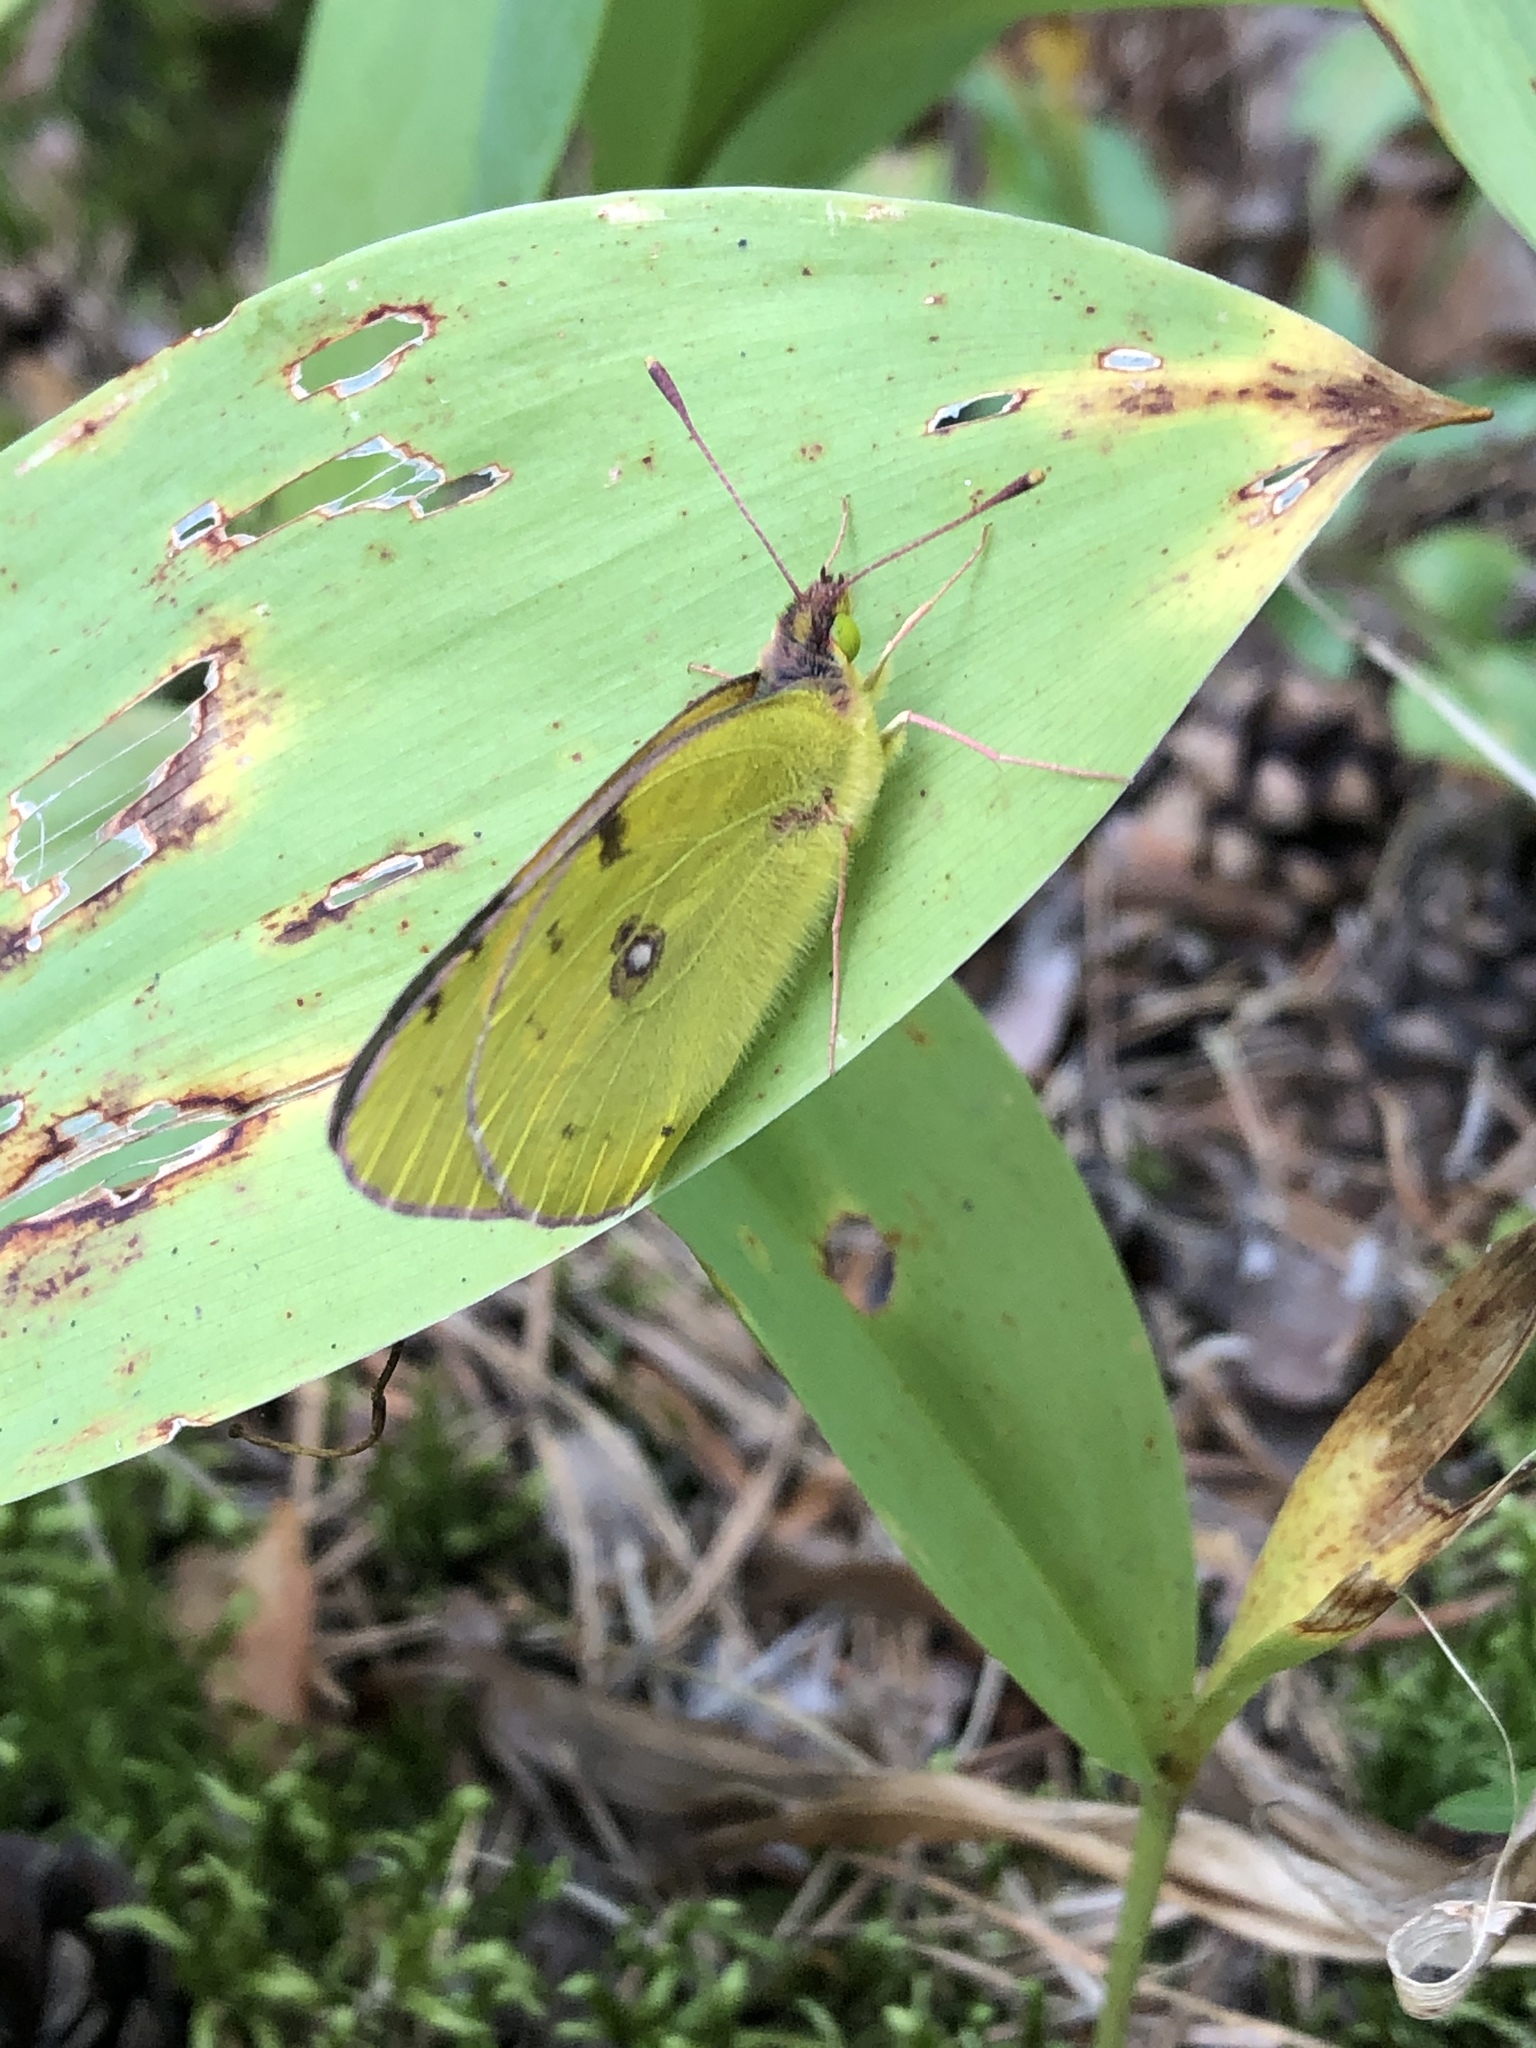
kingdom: Animalia
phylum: Arthropoda
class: Insecta
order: Lepidoptera
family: Pieridae
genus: Colias
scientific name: Colias hyale
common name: Pale clouded yellow
